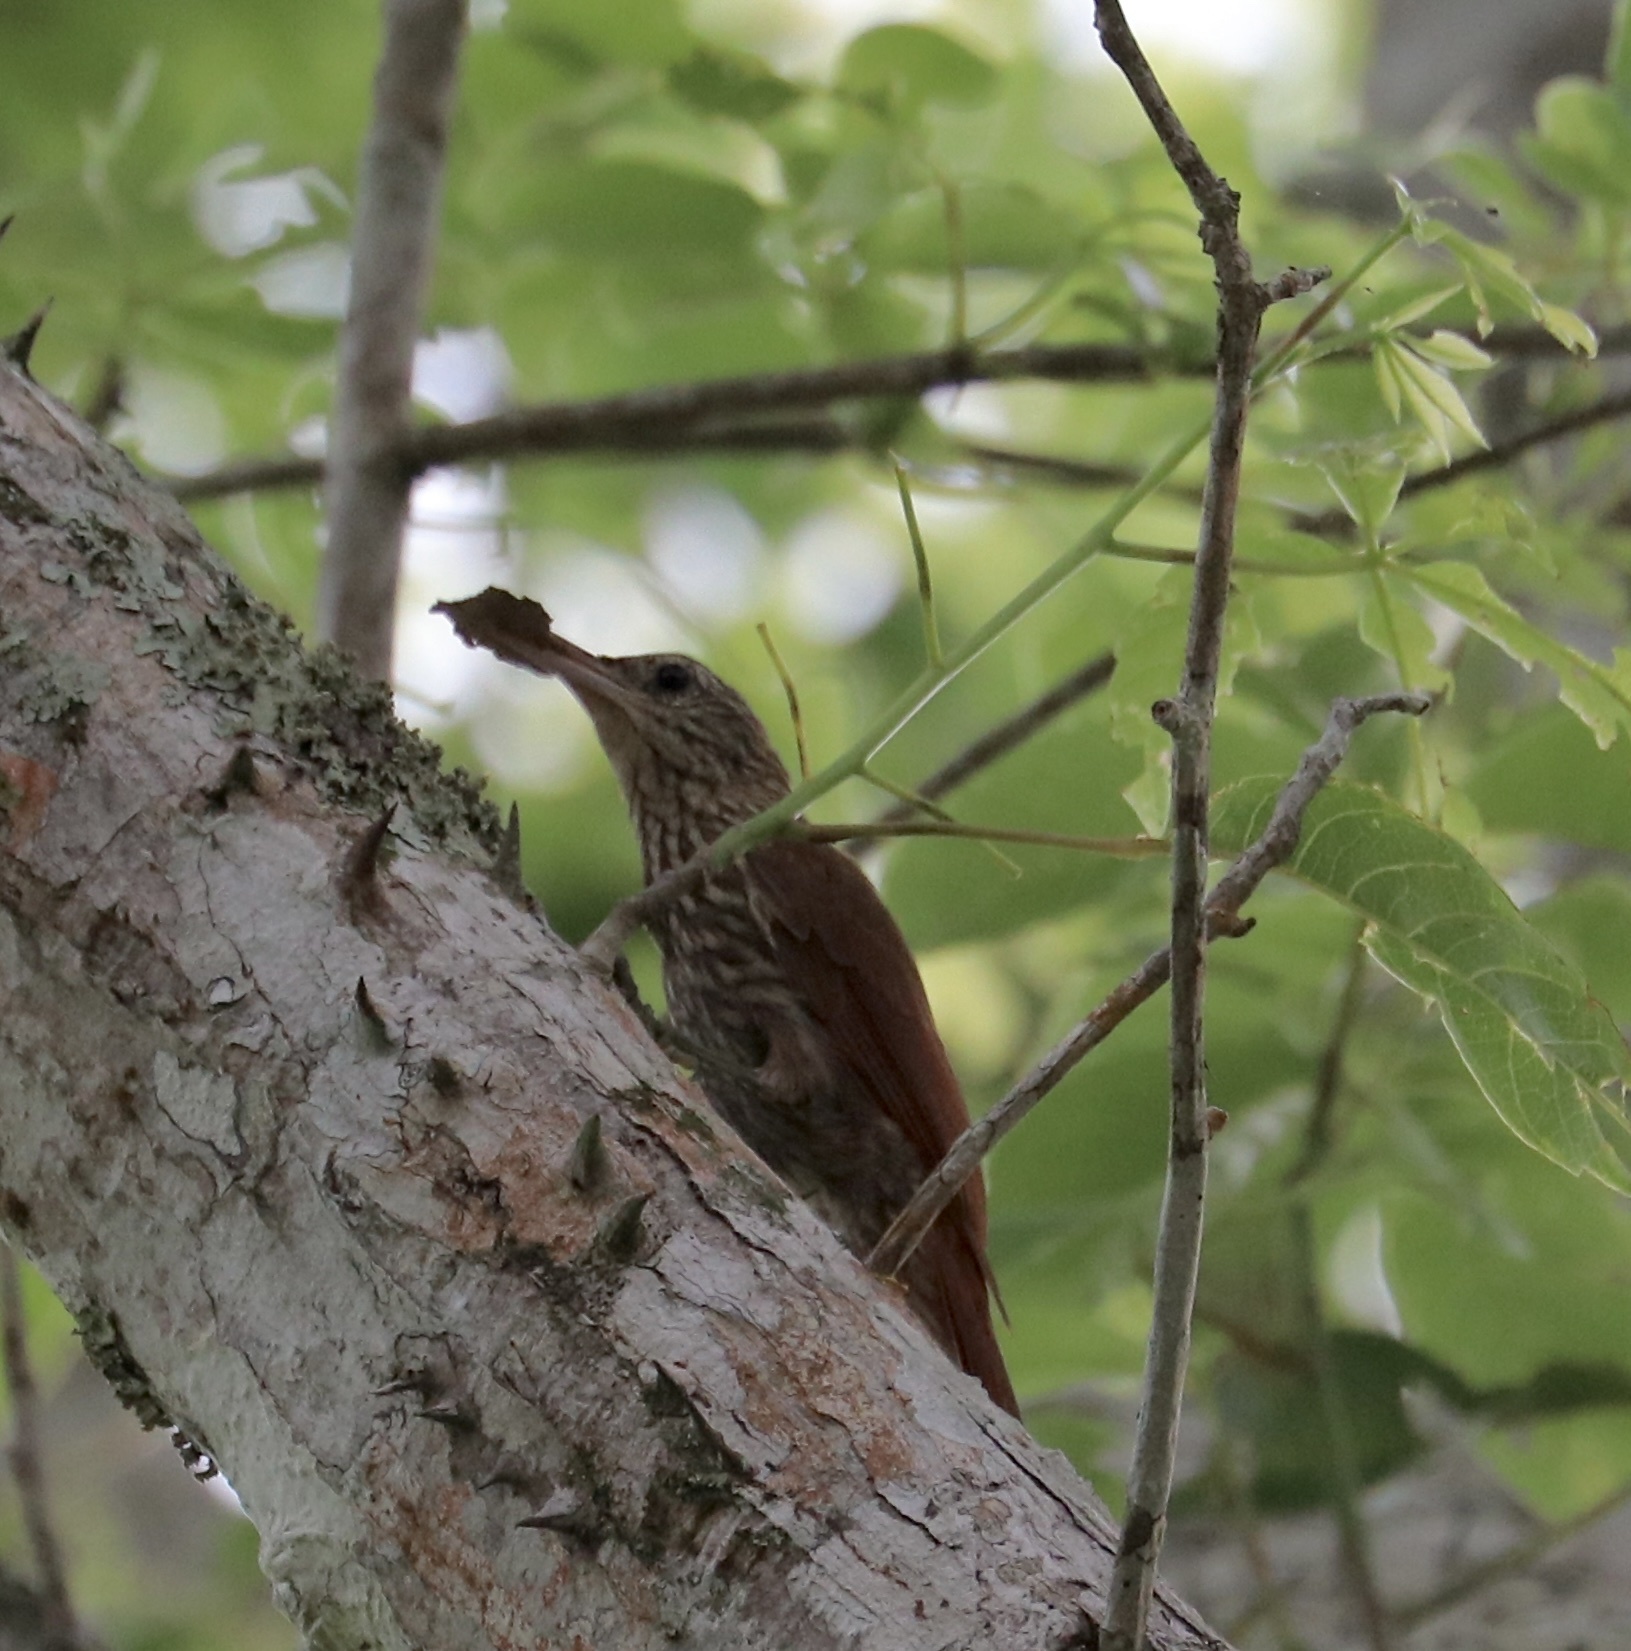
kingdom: Animalia
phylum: Chordata
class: Aves
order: Passeriformes
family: Furnariidae
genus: Lepidocolaptes
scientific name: Lepidocolaptes souleyetii
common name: Streak-headed woodcreeper
